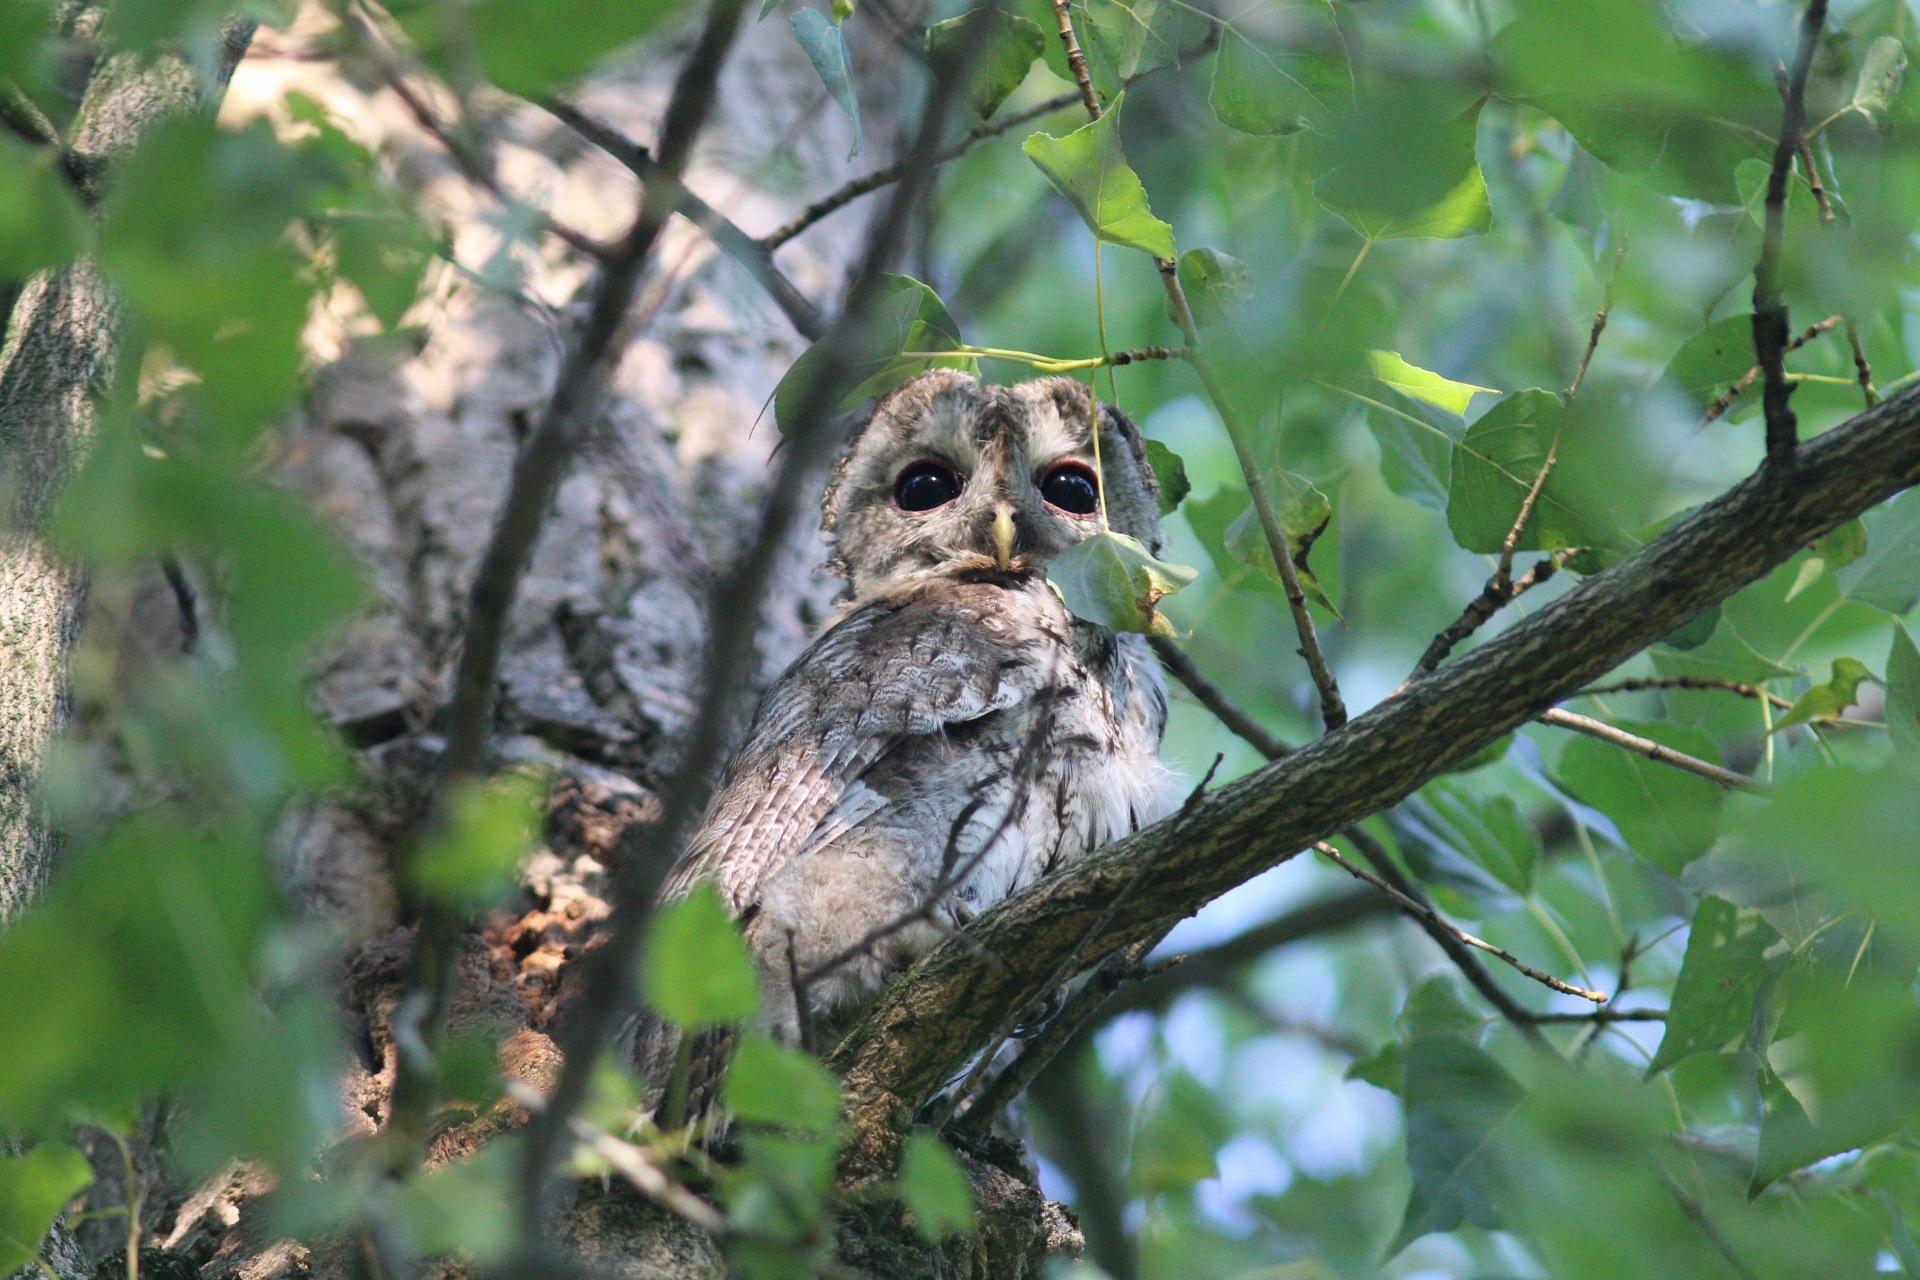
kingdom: Animalia
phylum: Chordata
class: Aves
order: Strigiformes
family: Strigidae
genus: Strix
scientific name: Strix aluco
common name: Tawny owl
